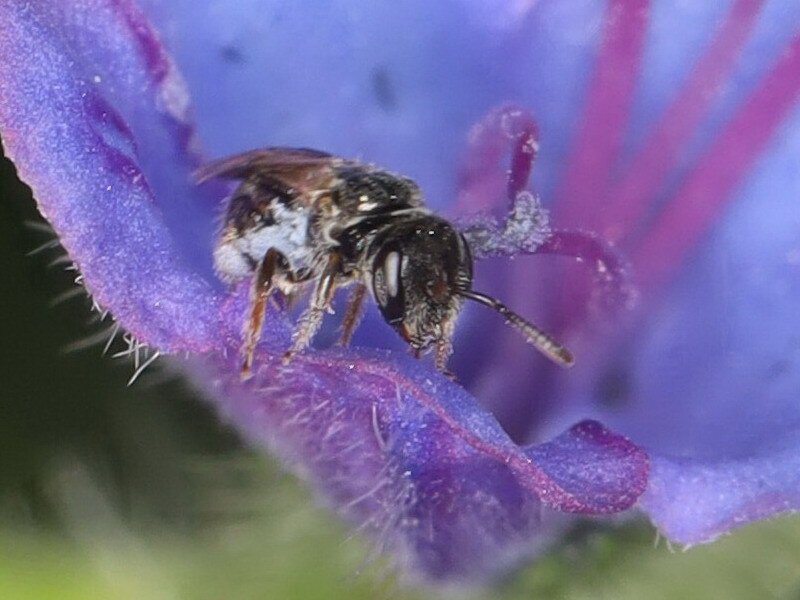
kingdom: Animalia
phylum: Arthropoda
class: Insecta
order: Hymenoptera
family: Halictidae
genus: Lasioglossum
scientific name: Lasioglossum politum
